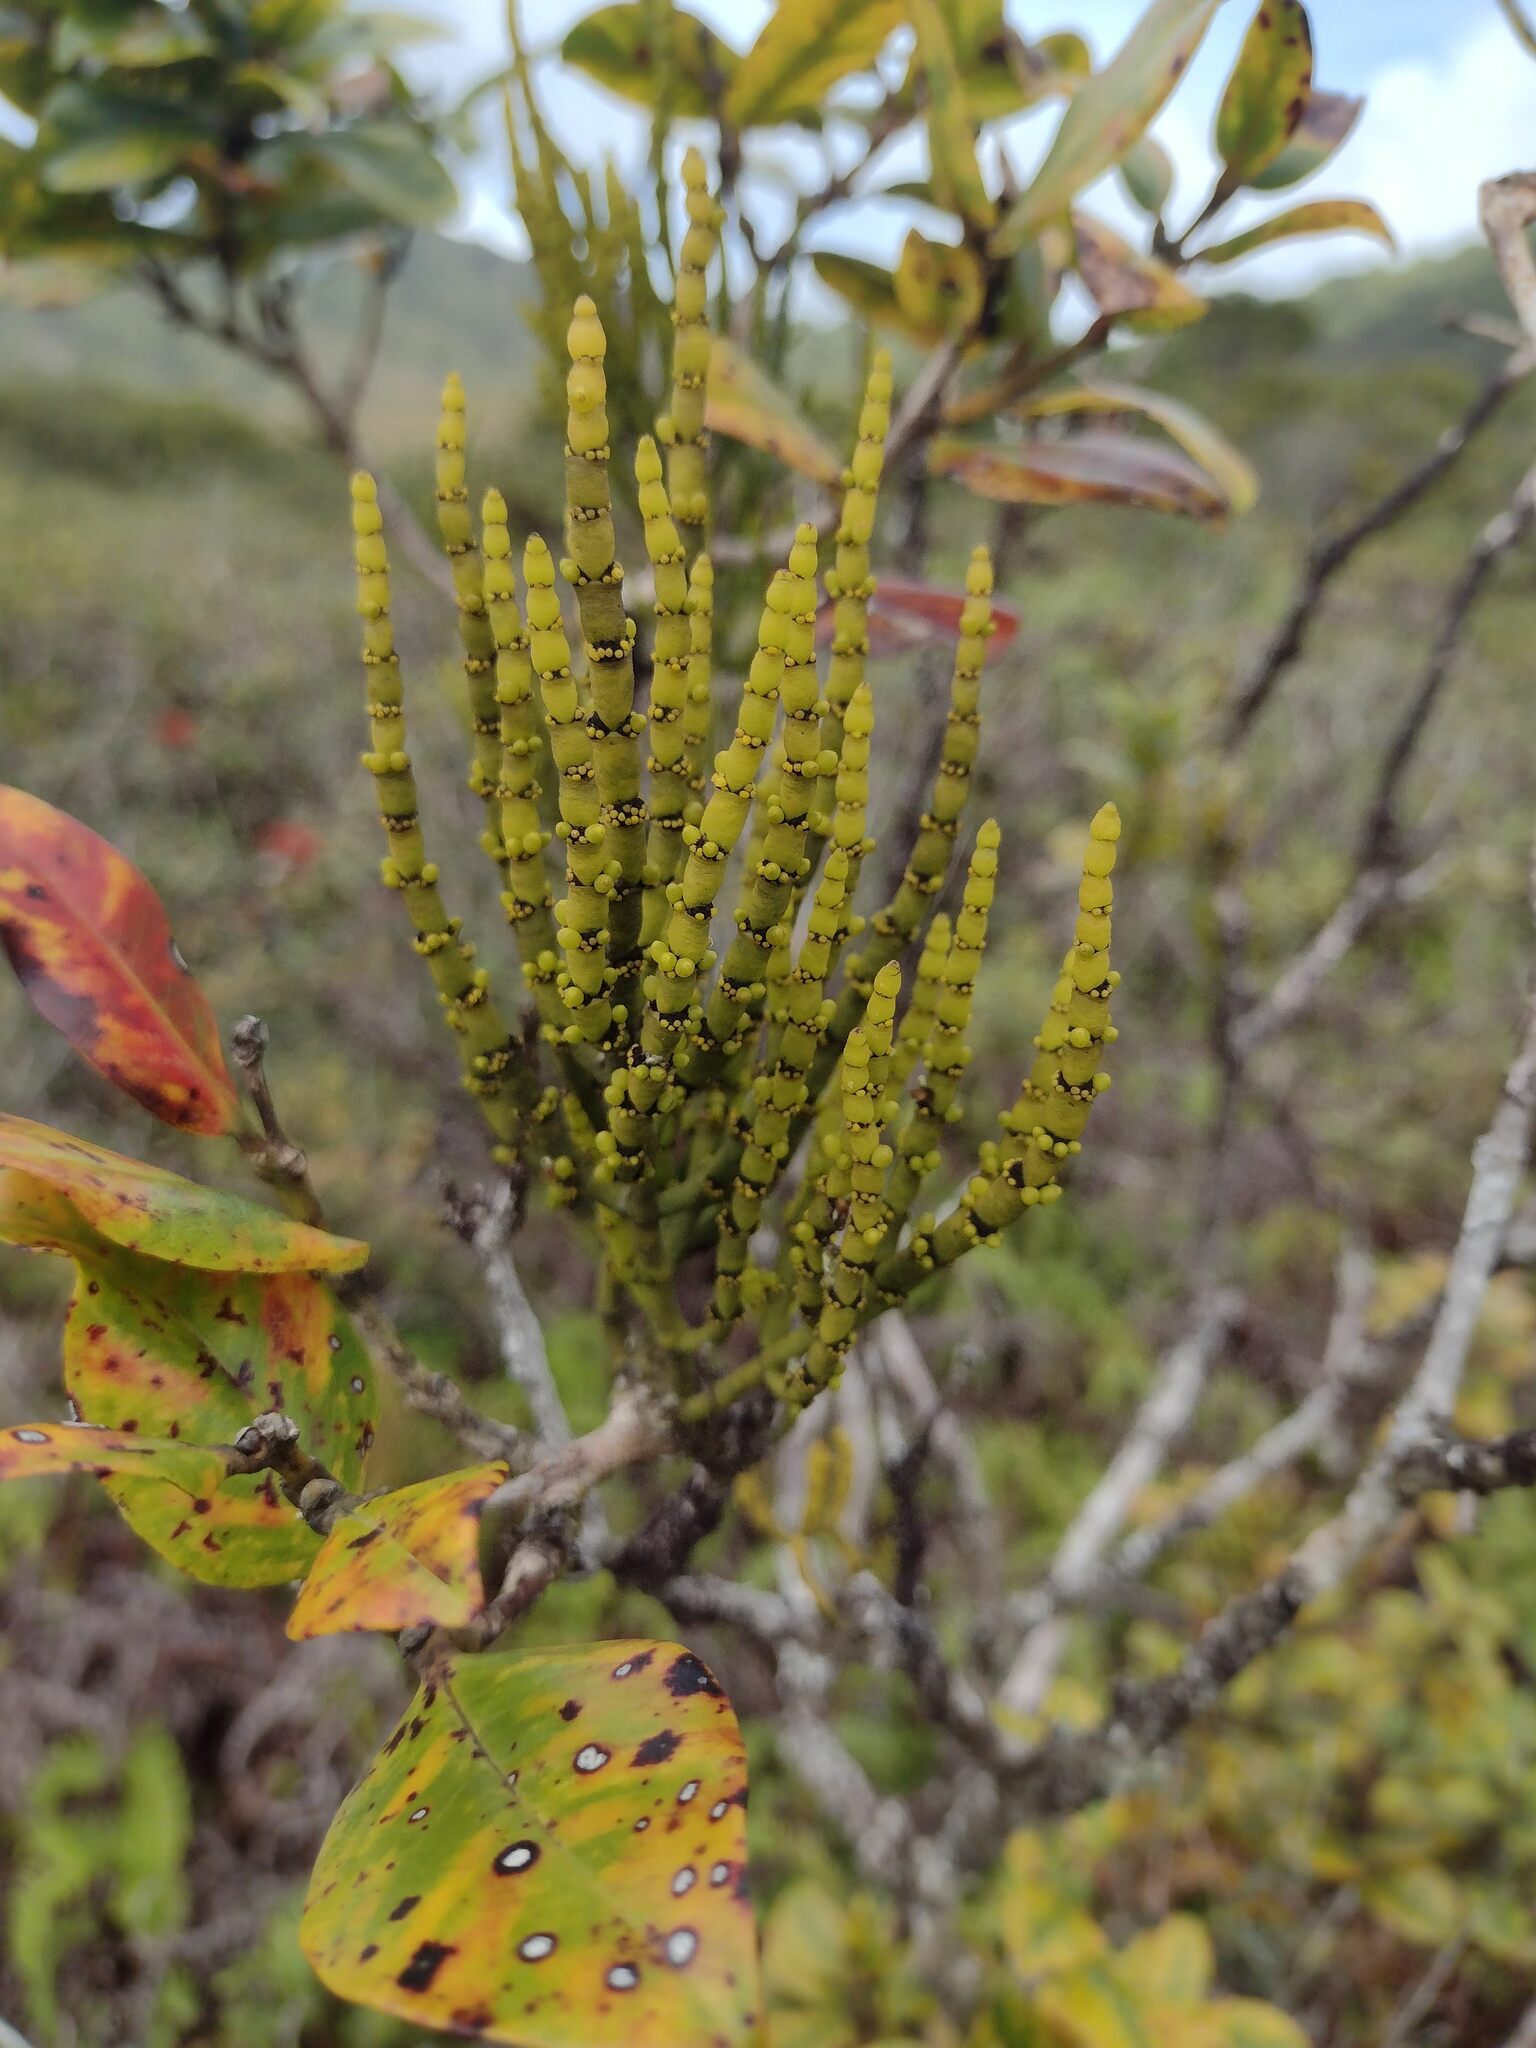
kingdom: Plantae
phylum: Tracheophyta
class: Magnoliopsida
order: Santalales
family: Viscaceae
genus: Korthalsella
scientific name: Korthalsella remyana
